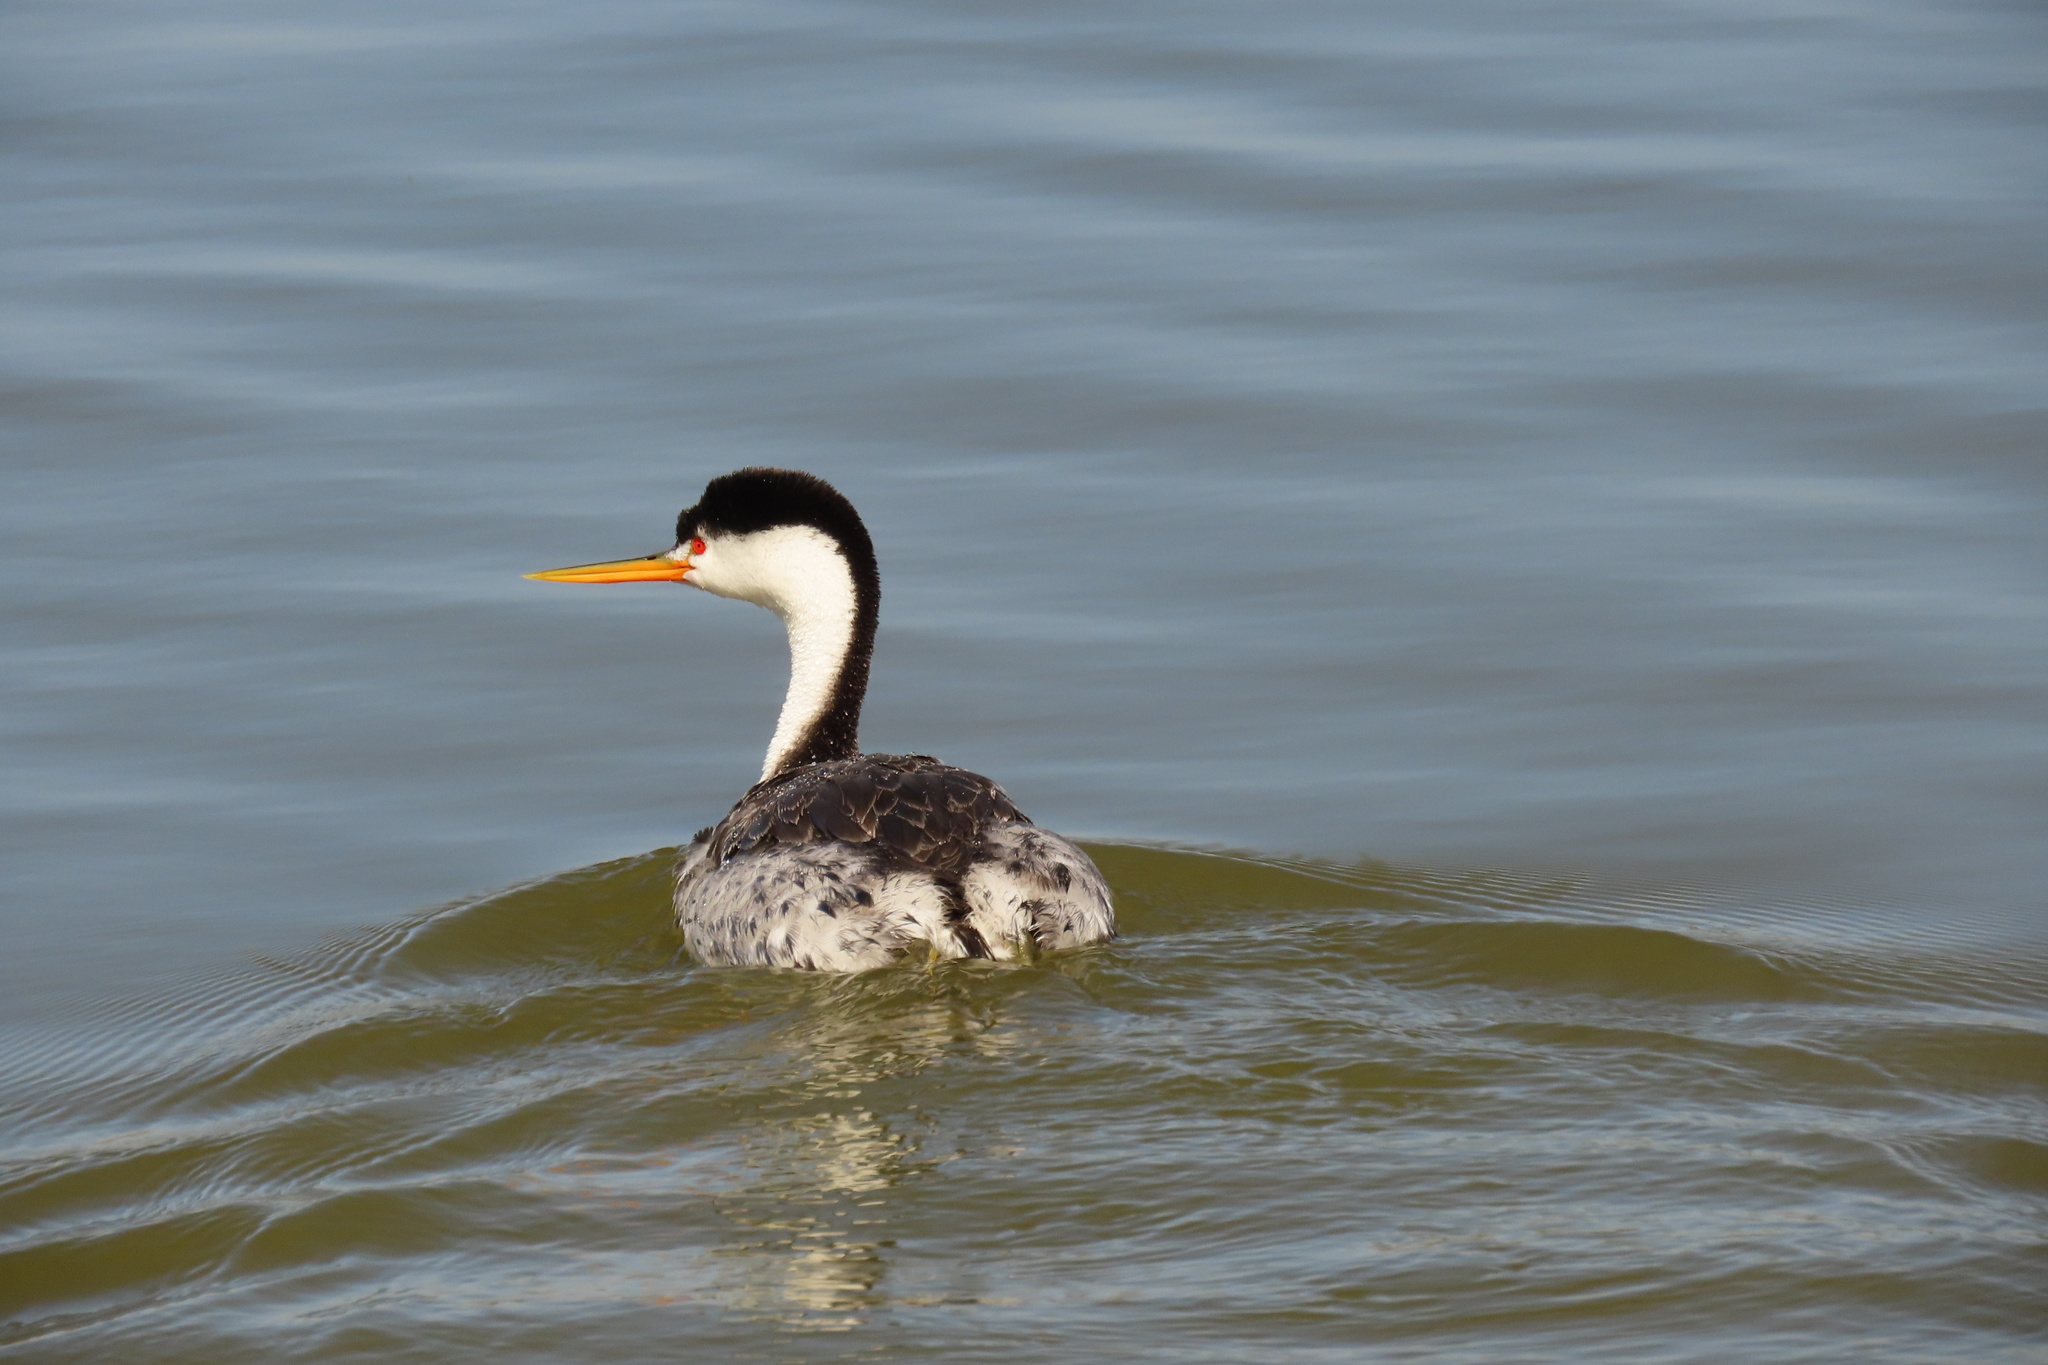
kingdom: Animalia
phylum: Chordata
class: Aves
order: Podicipediformes
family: Podicipedidae
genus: Aechmophorus
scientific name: Aechmophorus clarkii
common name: Clark's grebe
